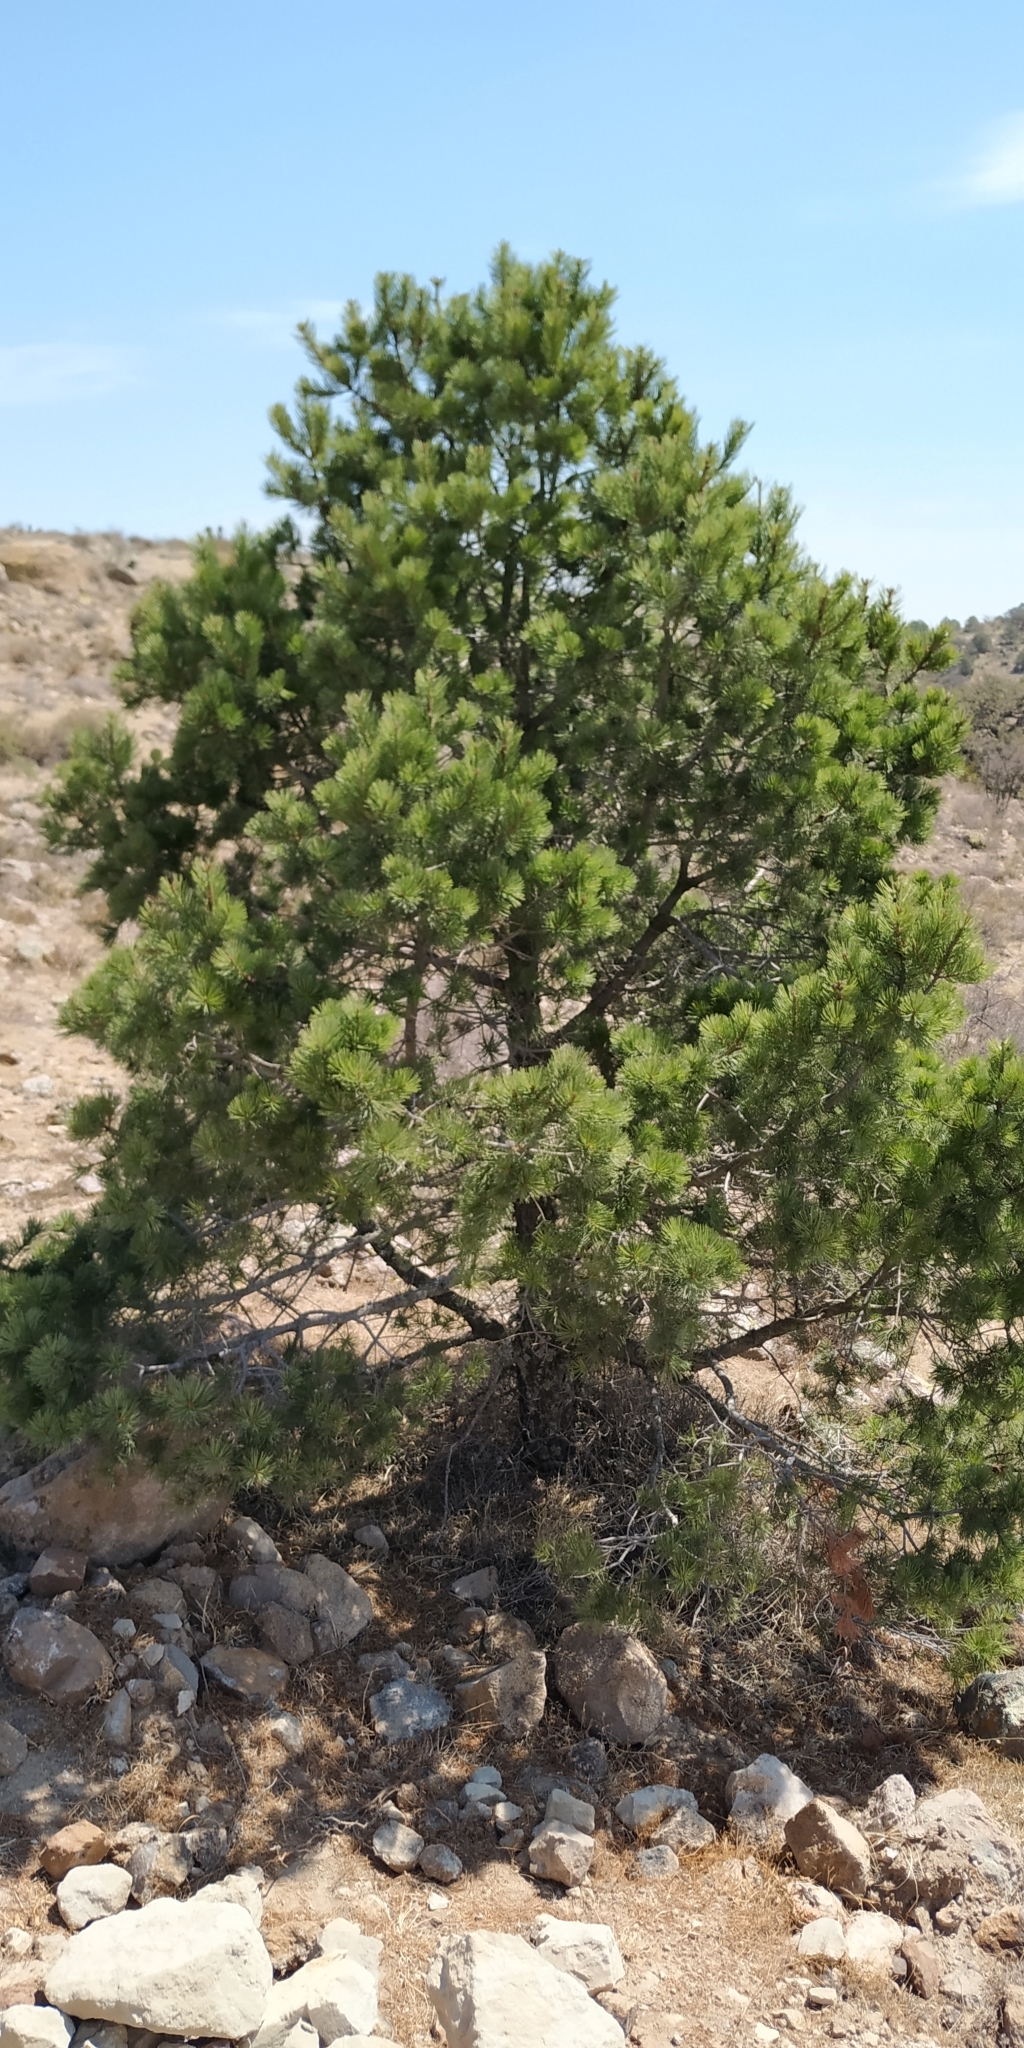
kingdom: Plantae
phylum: Tracheophyta
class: Pinopsida
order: Pinales
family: Pinaceae
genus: Pinus
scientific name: Pinus cembroides
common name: Mexican nut pine
